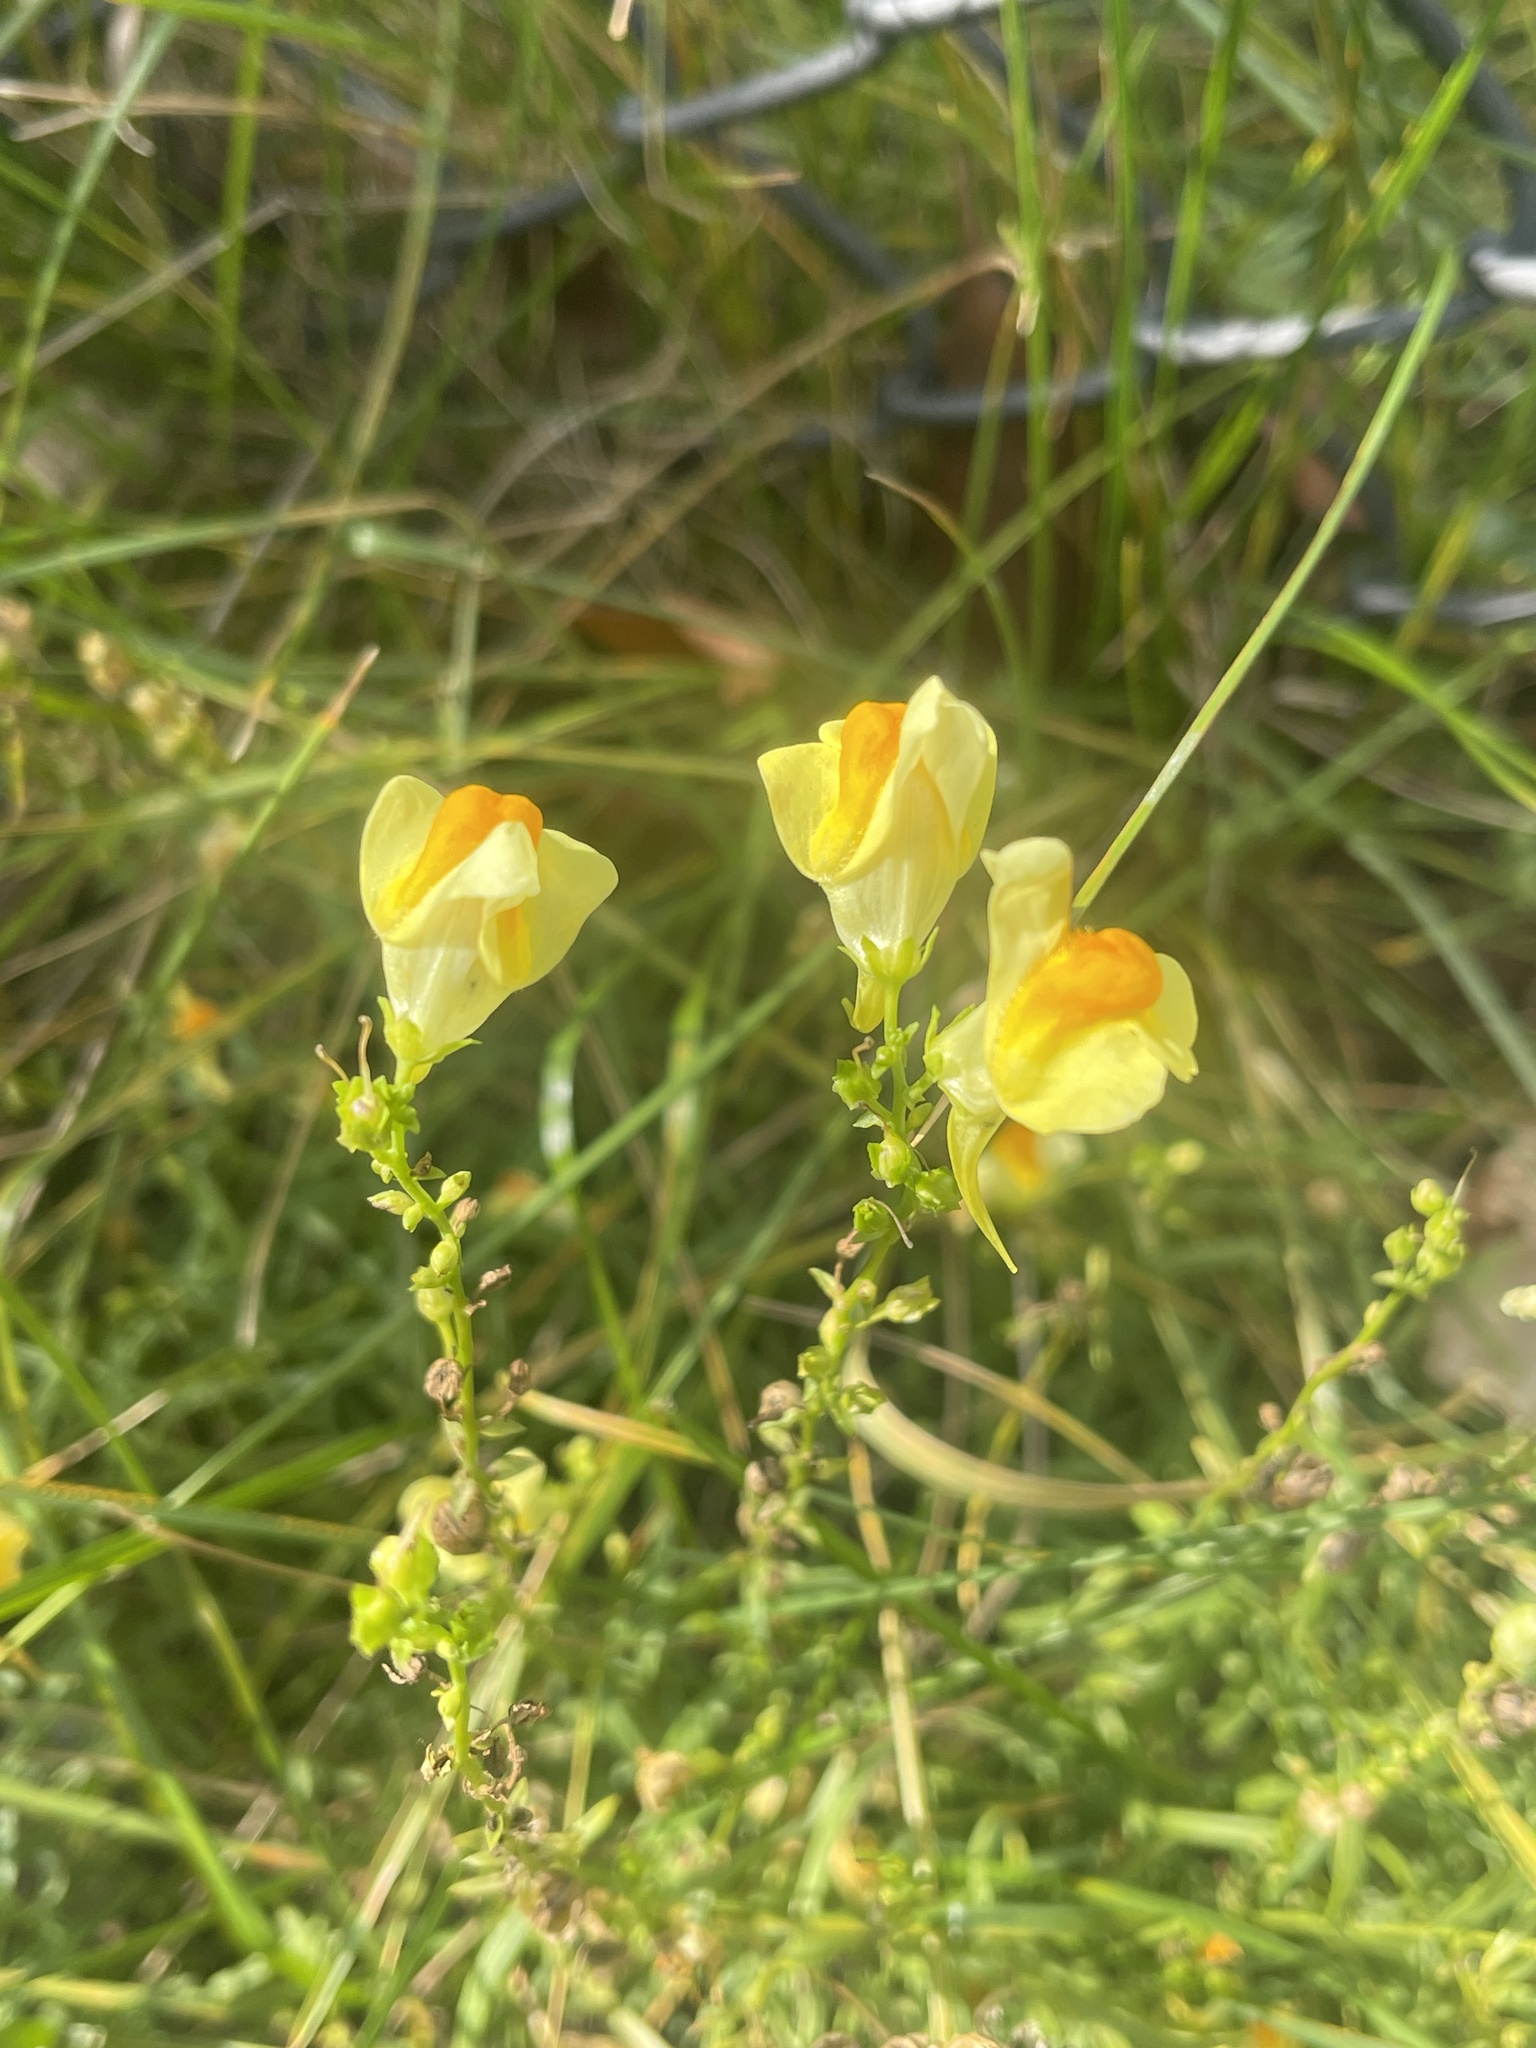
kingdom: Plantae
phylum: Tracheophyta
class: Magnoliopsida
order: Lamiales
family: Plantaginaceae
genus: Linaria
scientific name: Linaria vulgaris
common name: Butter and eggs
